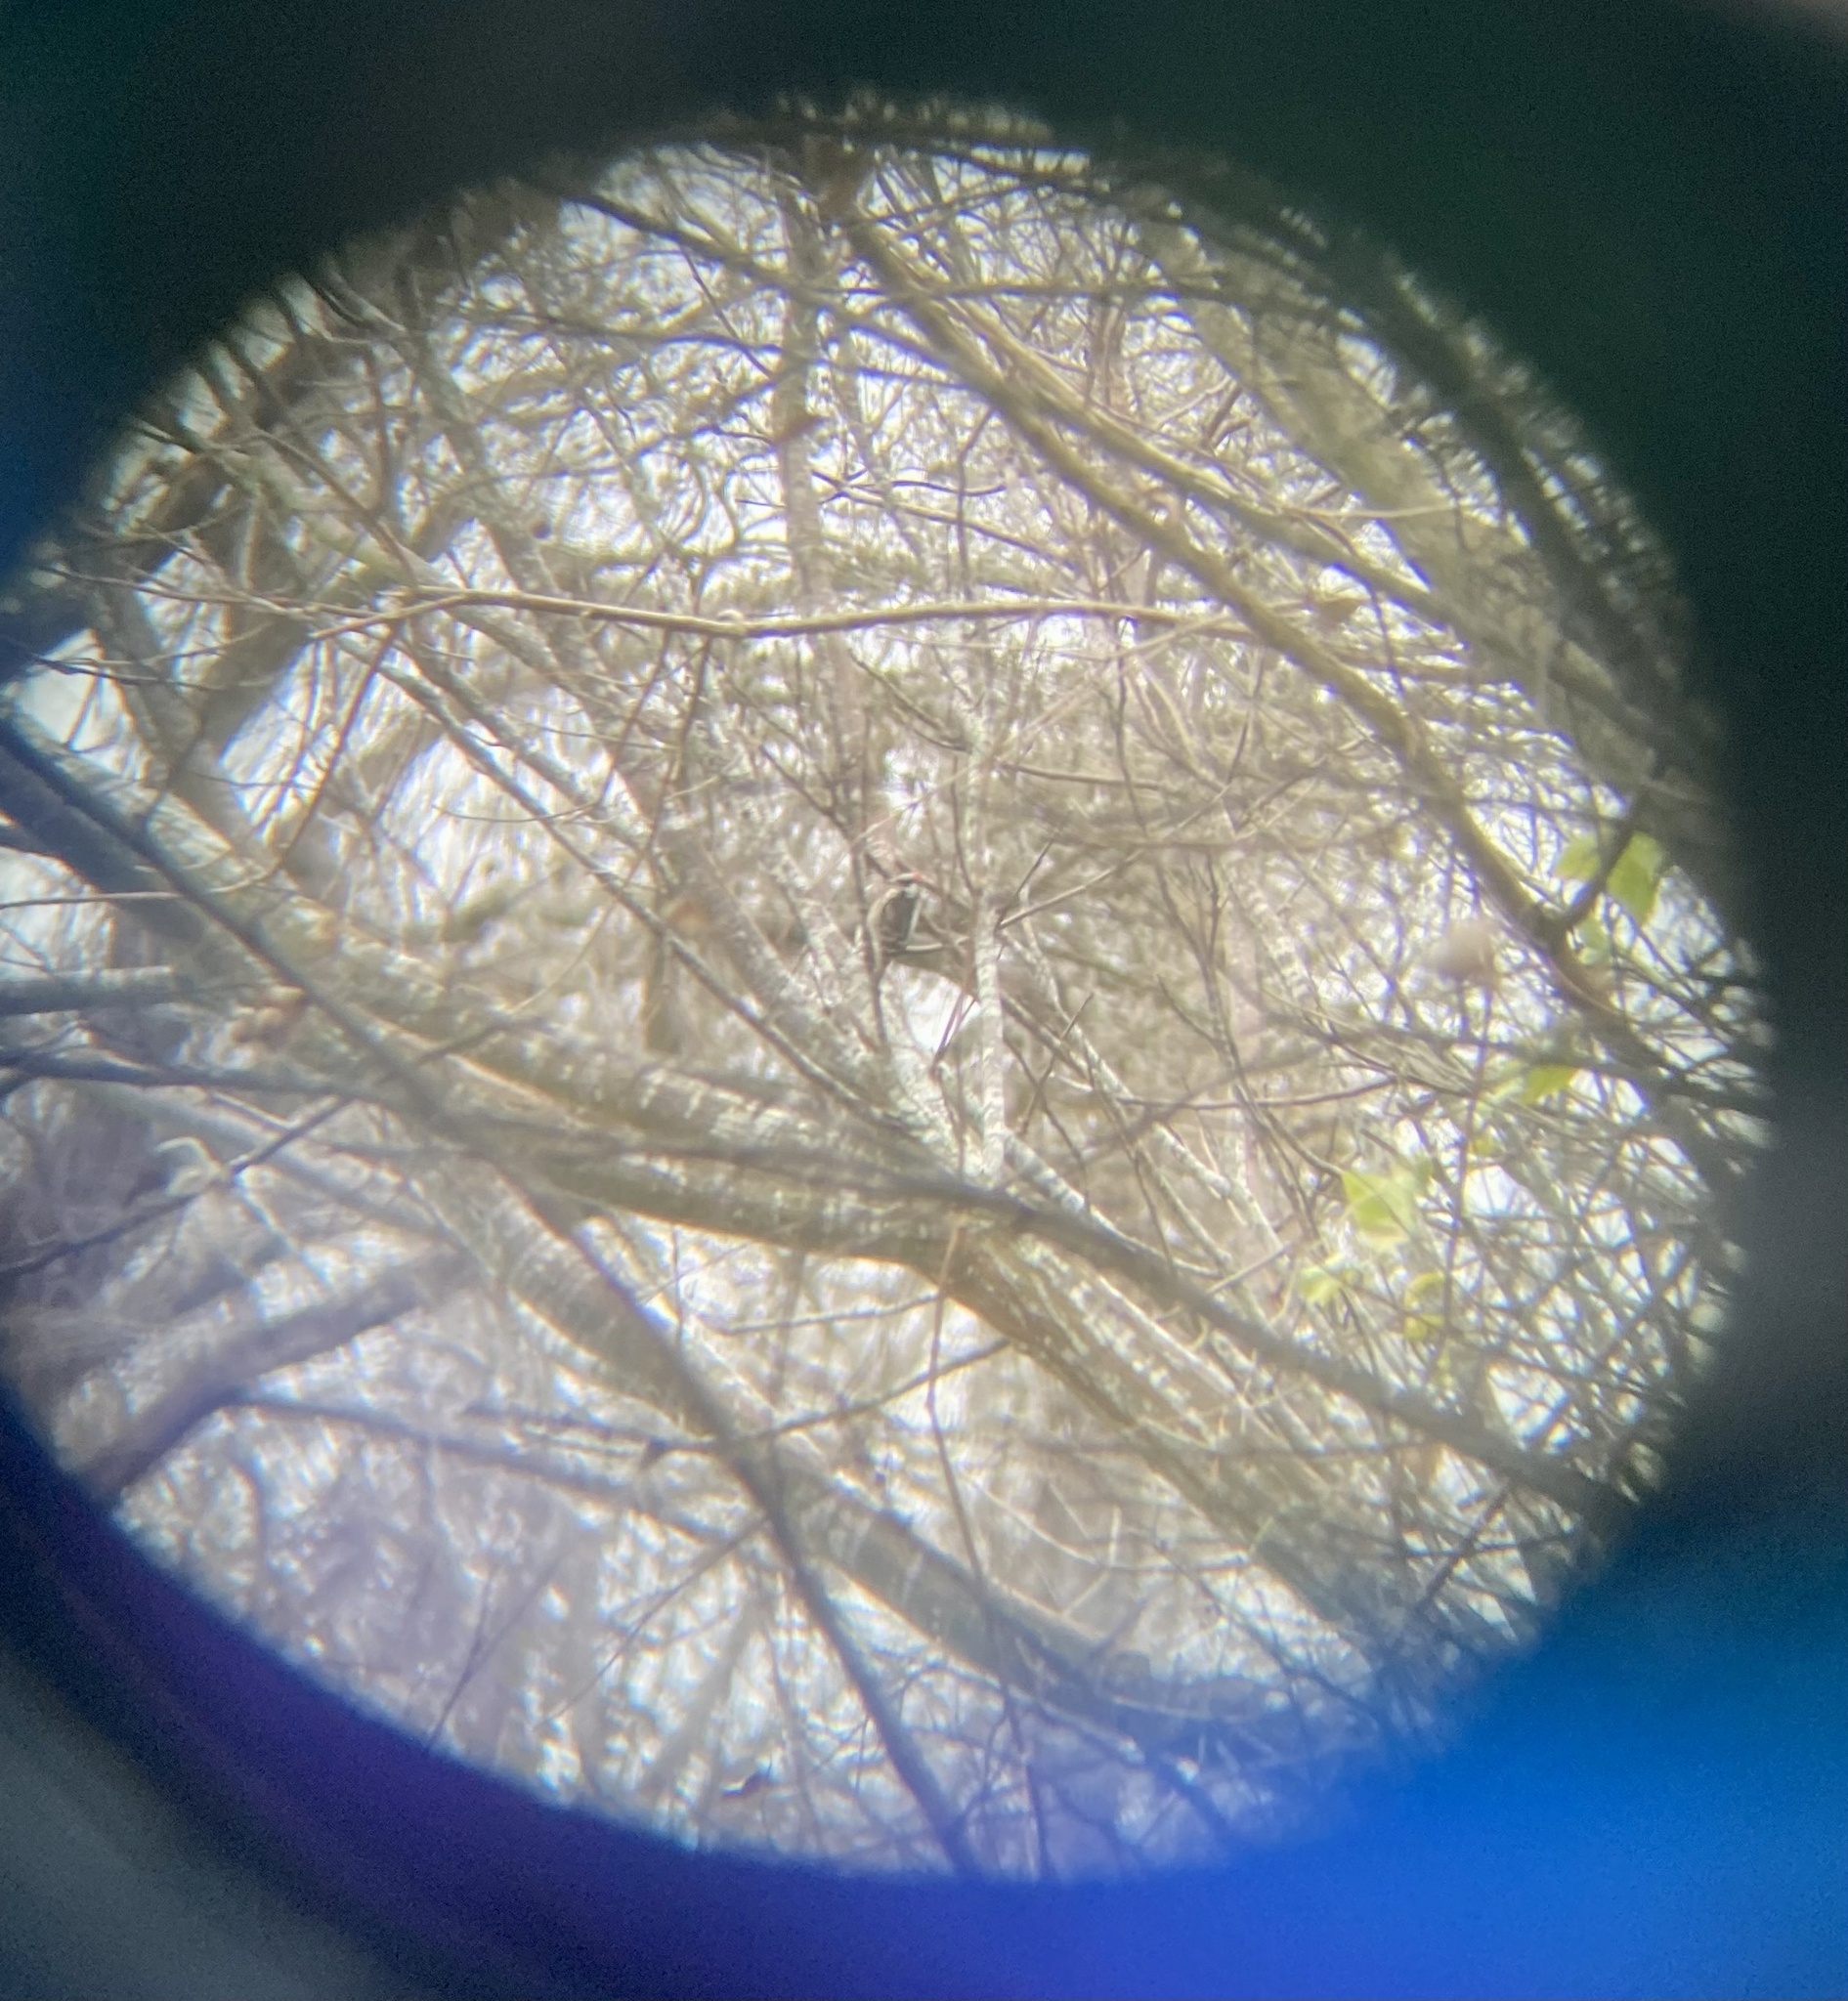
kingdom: Animalia
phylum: Chordata
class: Aves
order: Piciformes
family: Picidae
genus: Dryobates
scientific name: Dryobates pubescens
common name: Downy woodpecker
